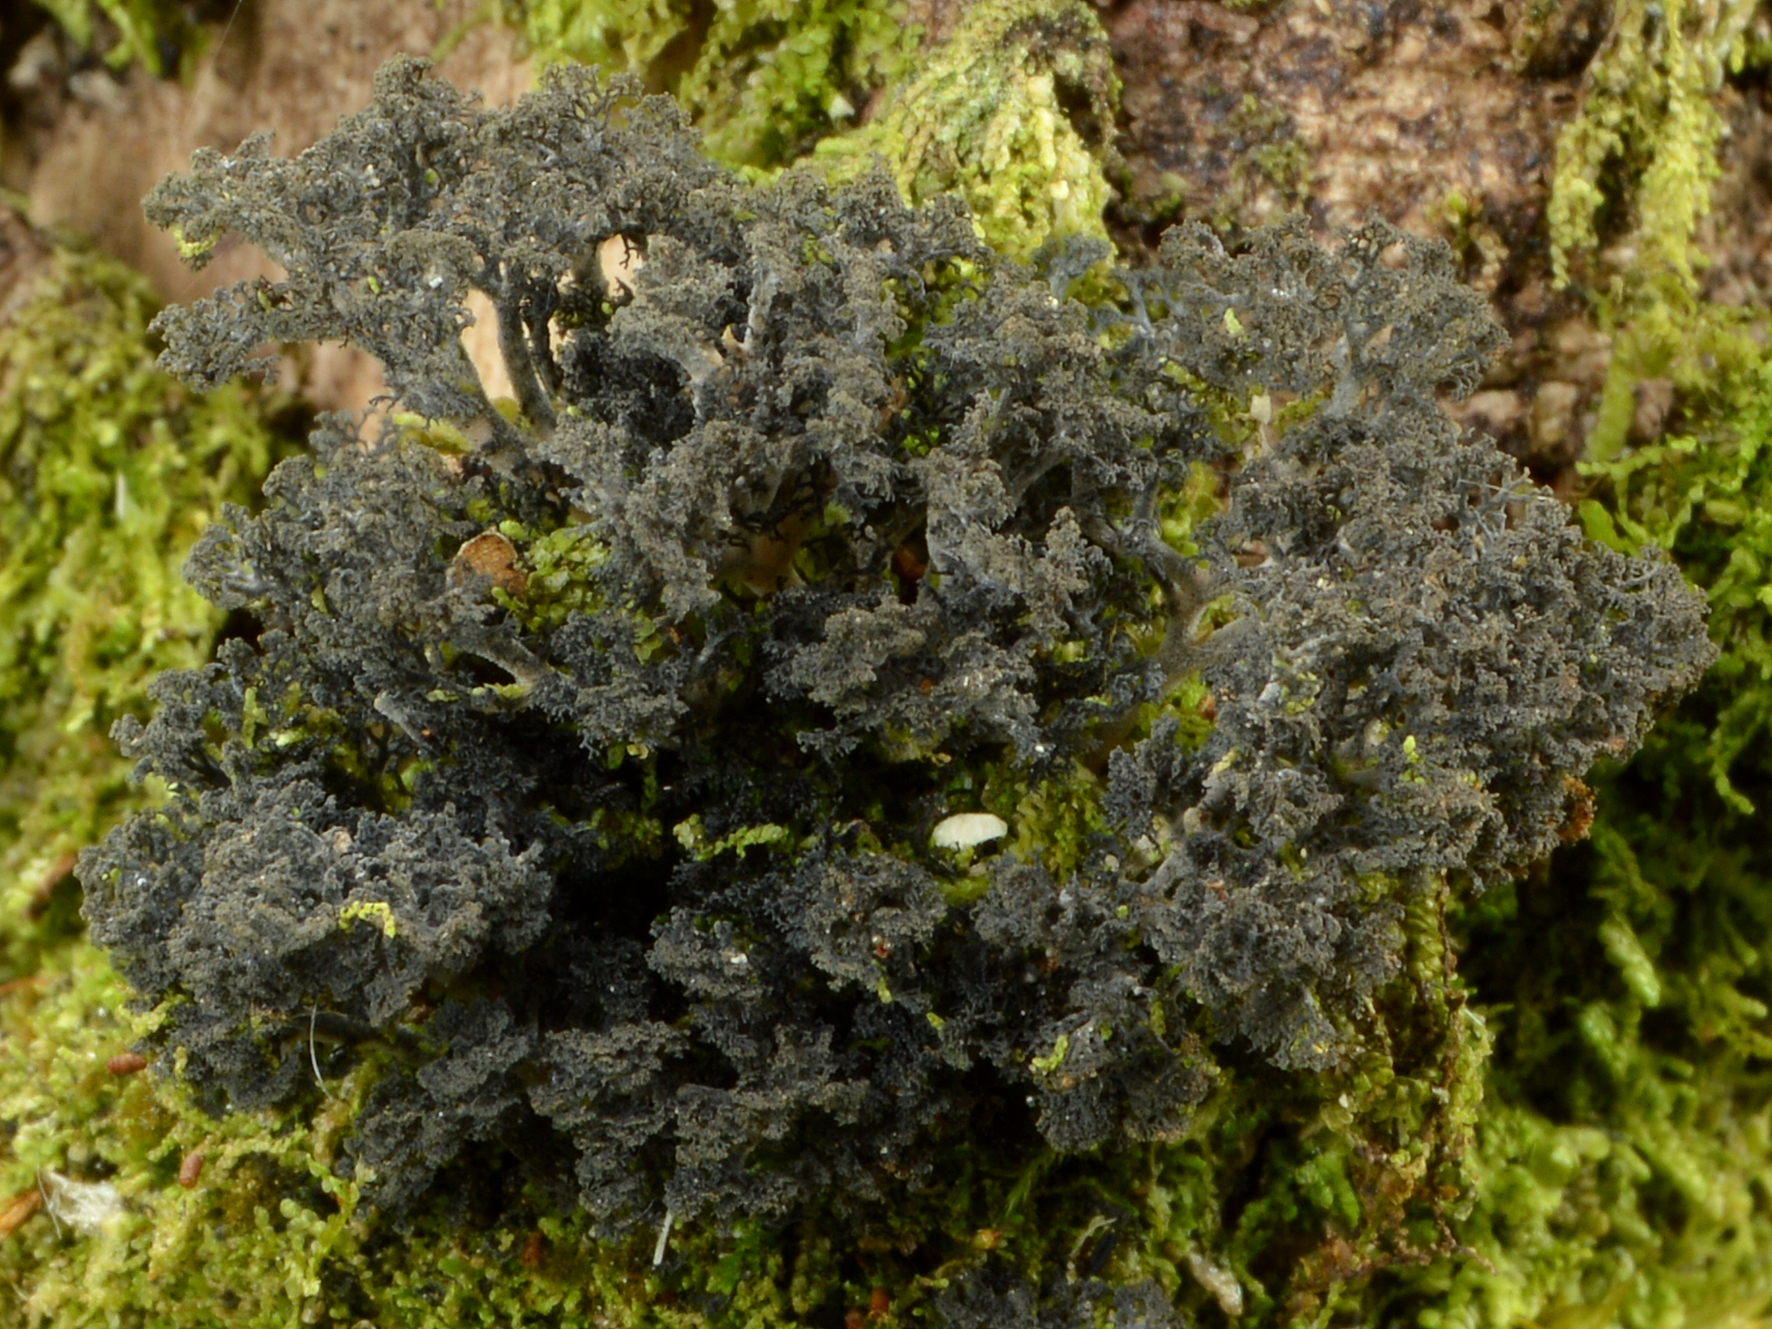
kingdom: Fungi
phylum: Ascomycota
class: Lecanoromycetes
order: Peltigerales
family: Lobariaceae
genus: Sticta
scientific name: Sticta dendroides
